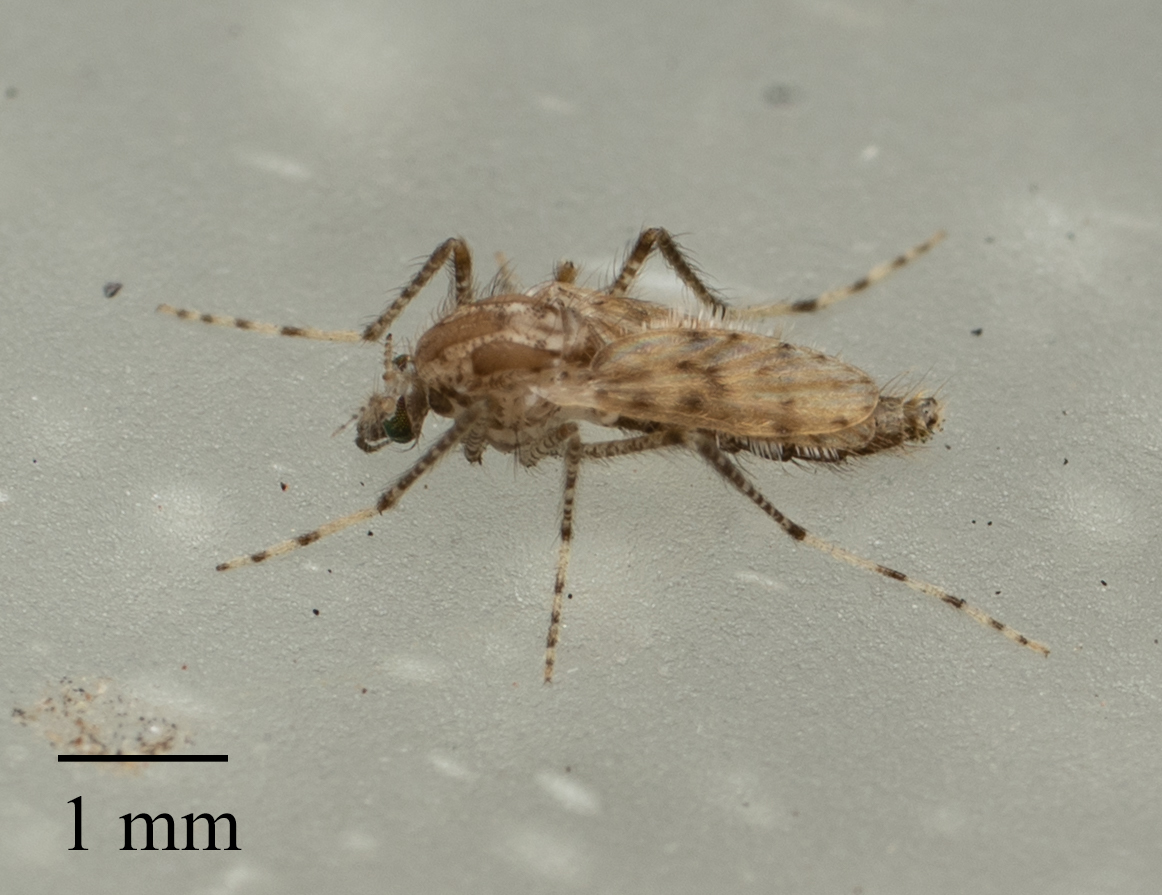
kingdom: Animalia
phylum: Arthropoda
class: Insecta
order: Diptera
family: Chaoboridae
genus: Chaoborus
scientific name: Chaoborus punctipennis
